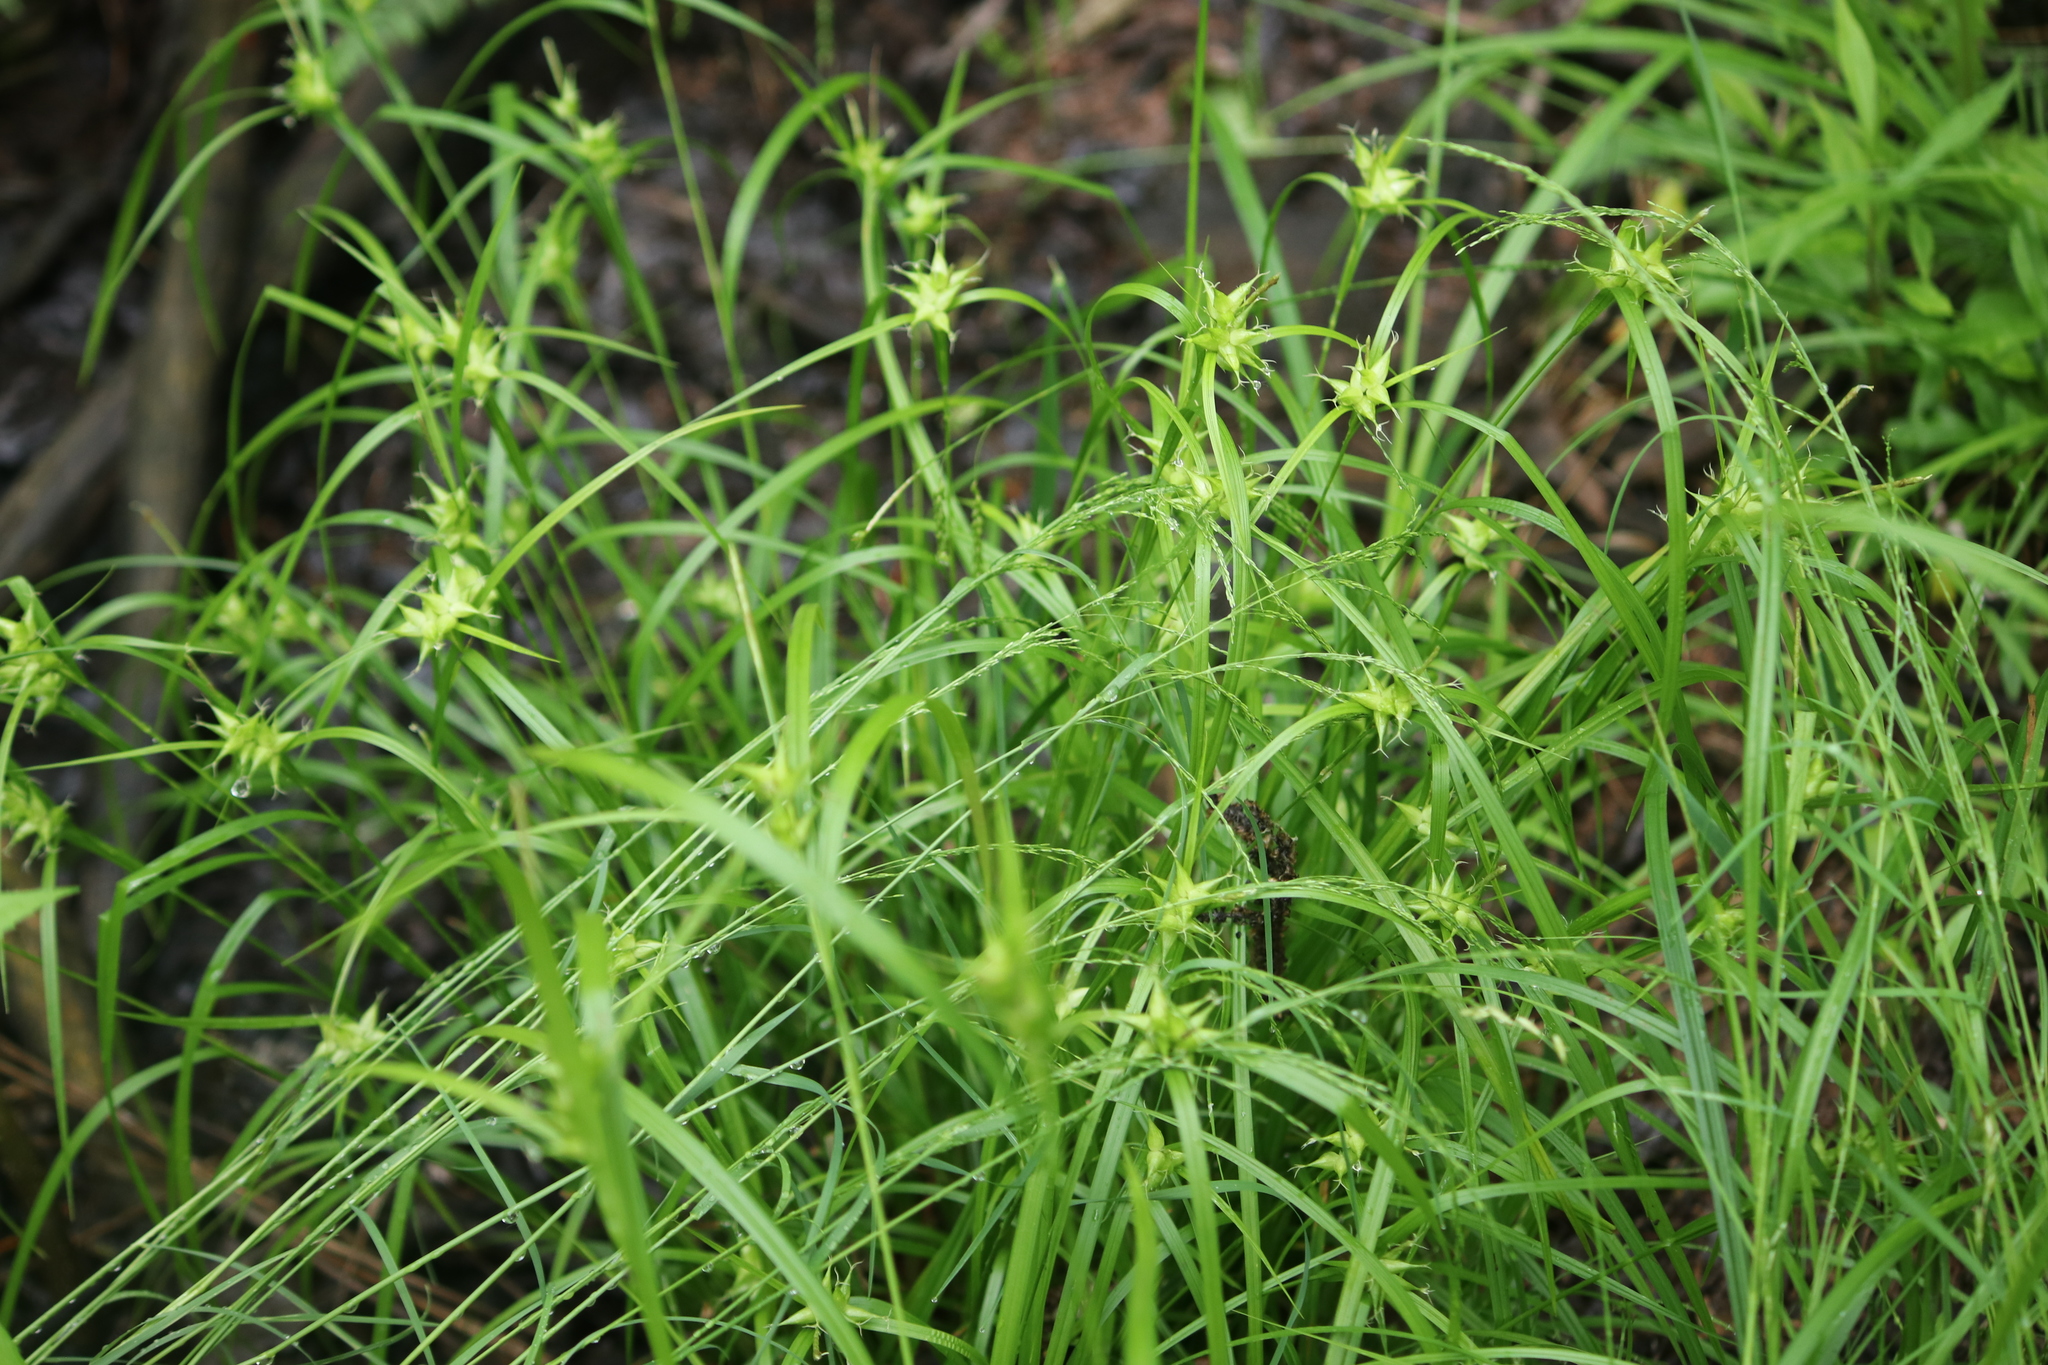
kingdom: Plantae
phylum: Tracheophyta
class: Liliopsida
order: Poales
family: Cyperaceae
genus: Carex
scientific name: Carex intumescens
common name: Greater bladder sedge
